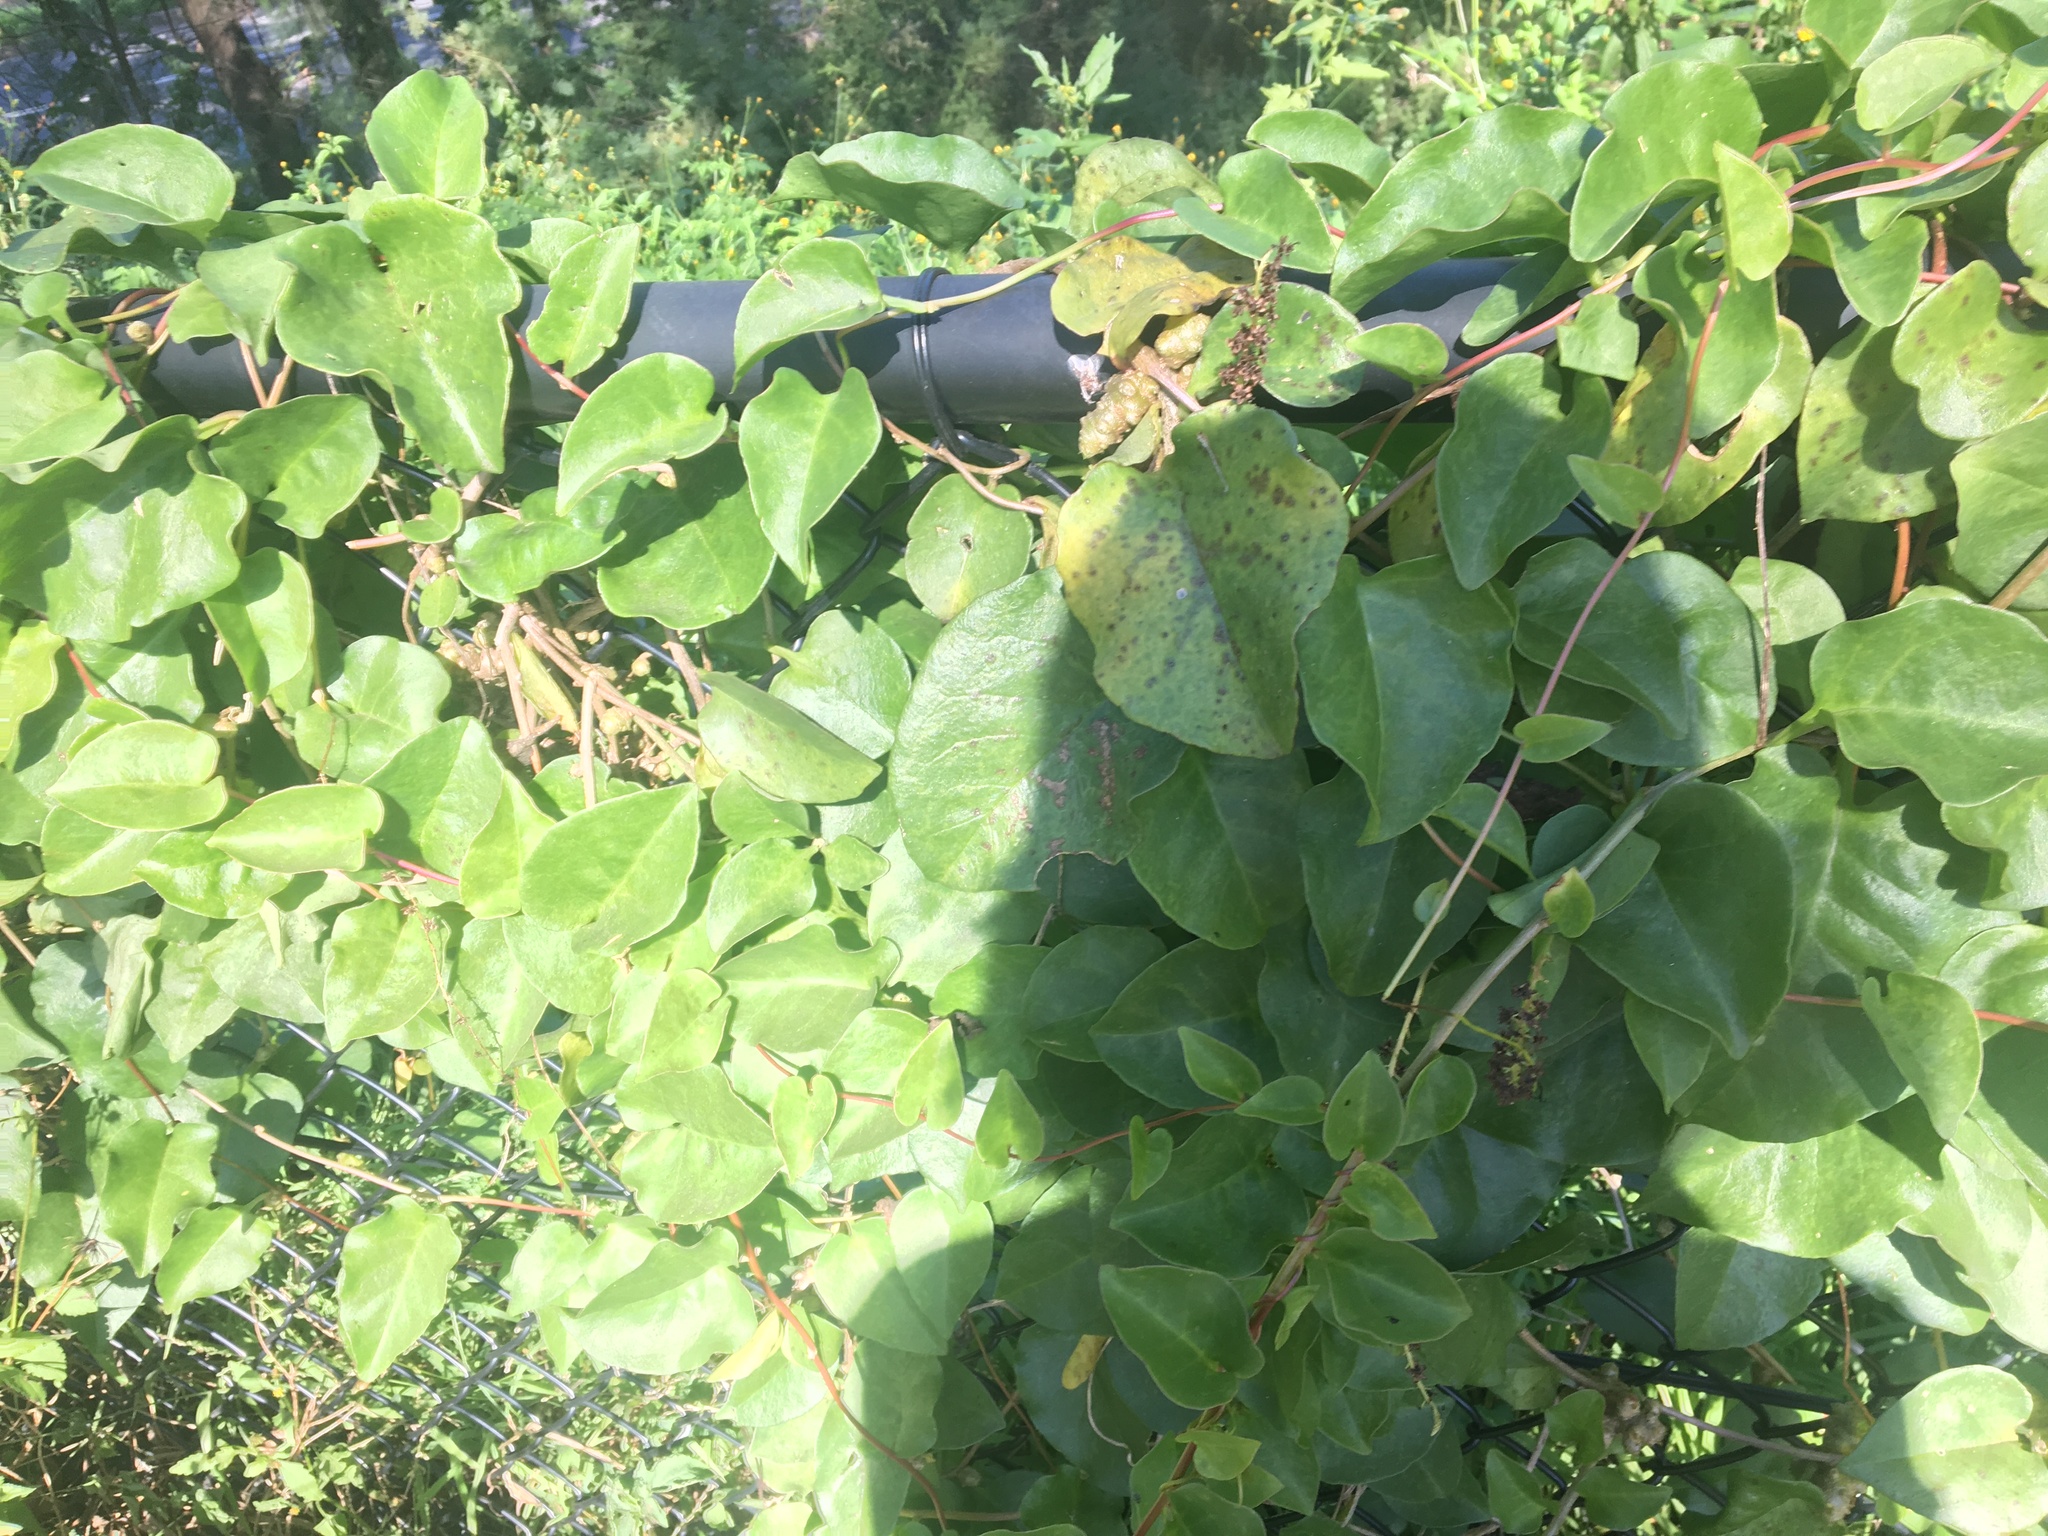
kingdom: Plantae
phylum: Tracheophyta
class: Magnoliopsida
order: Caryophyllales
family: Basellaceae
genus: Anredera
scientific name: Anredera cordifolia
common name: Heartleaf madeiravine
